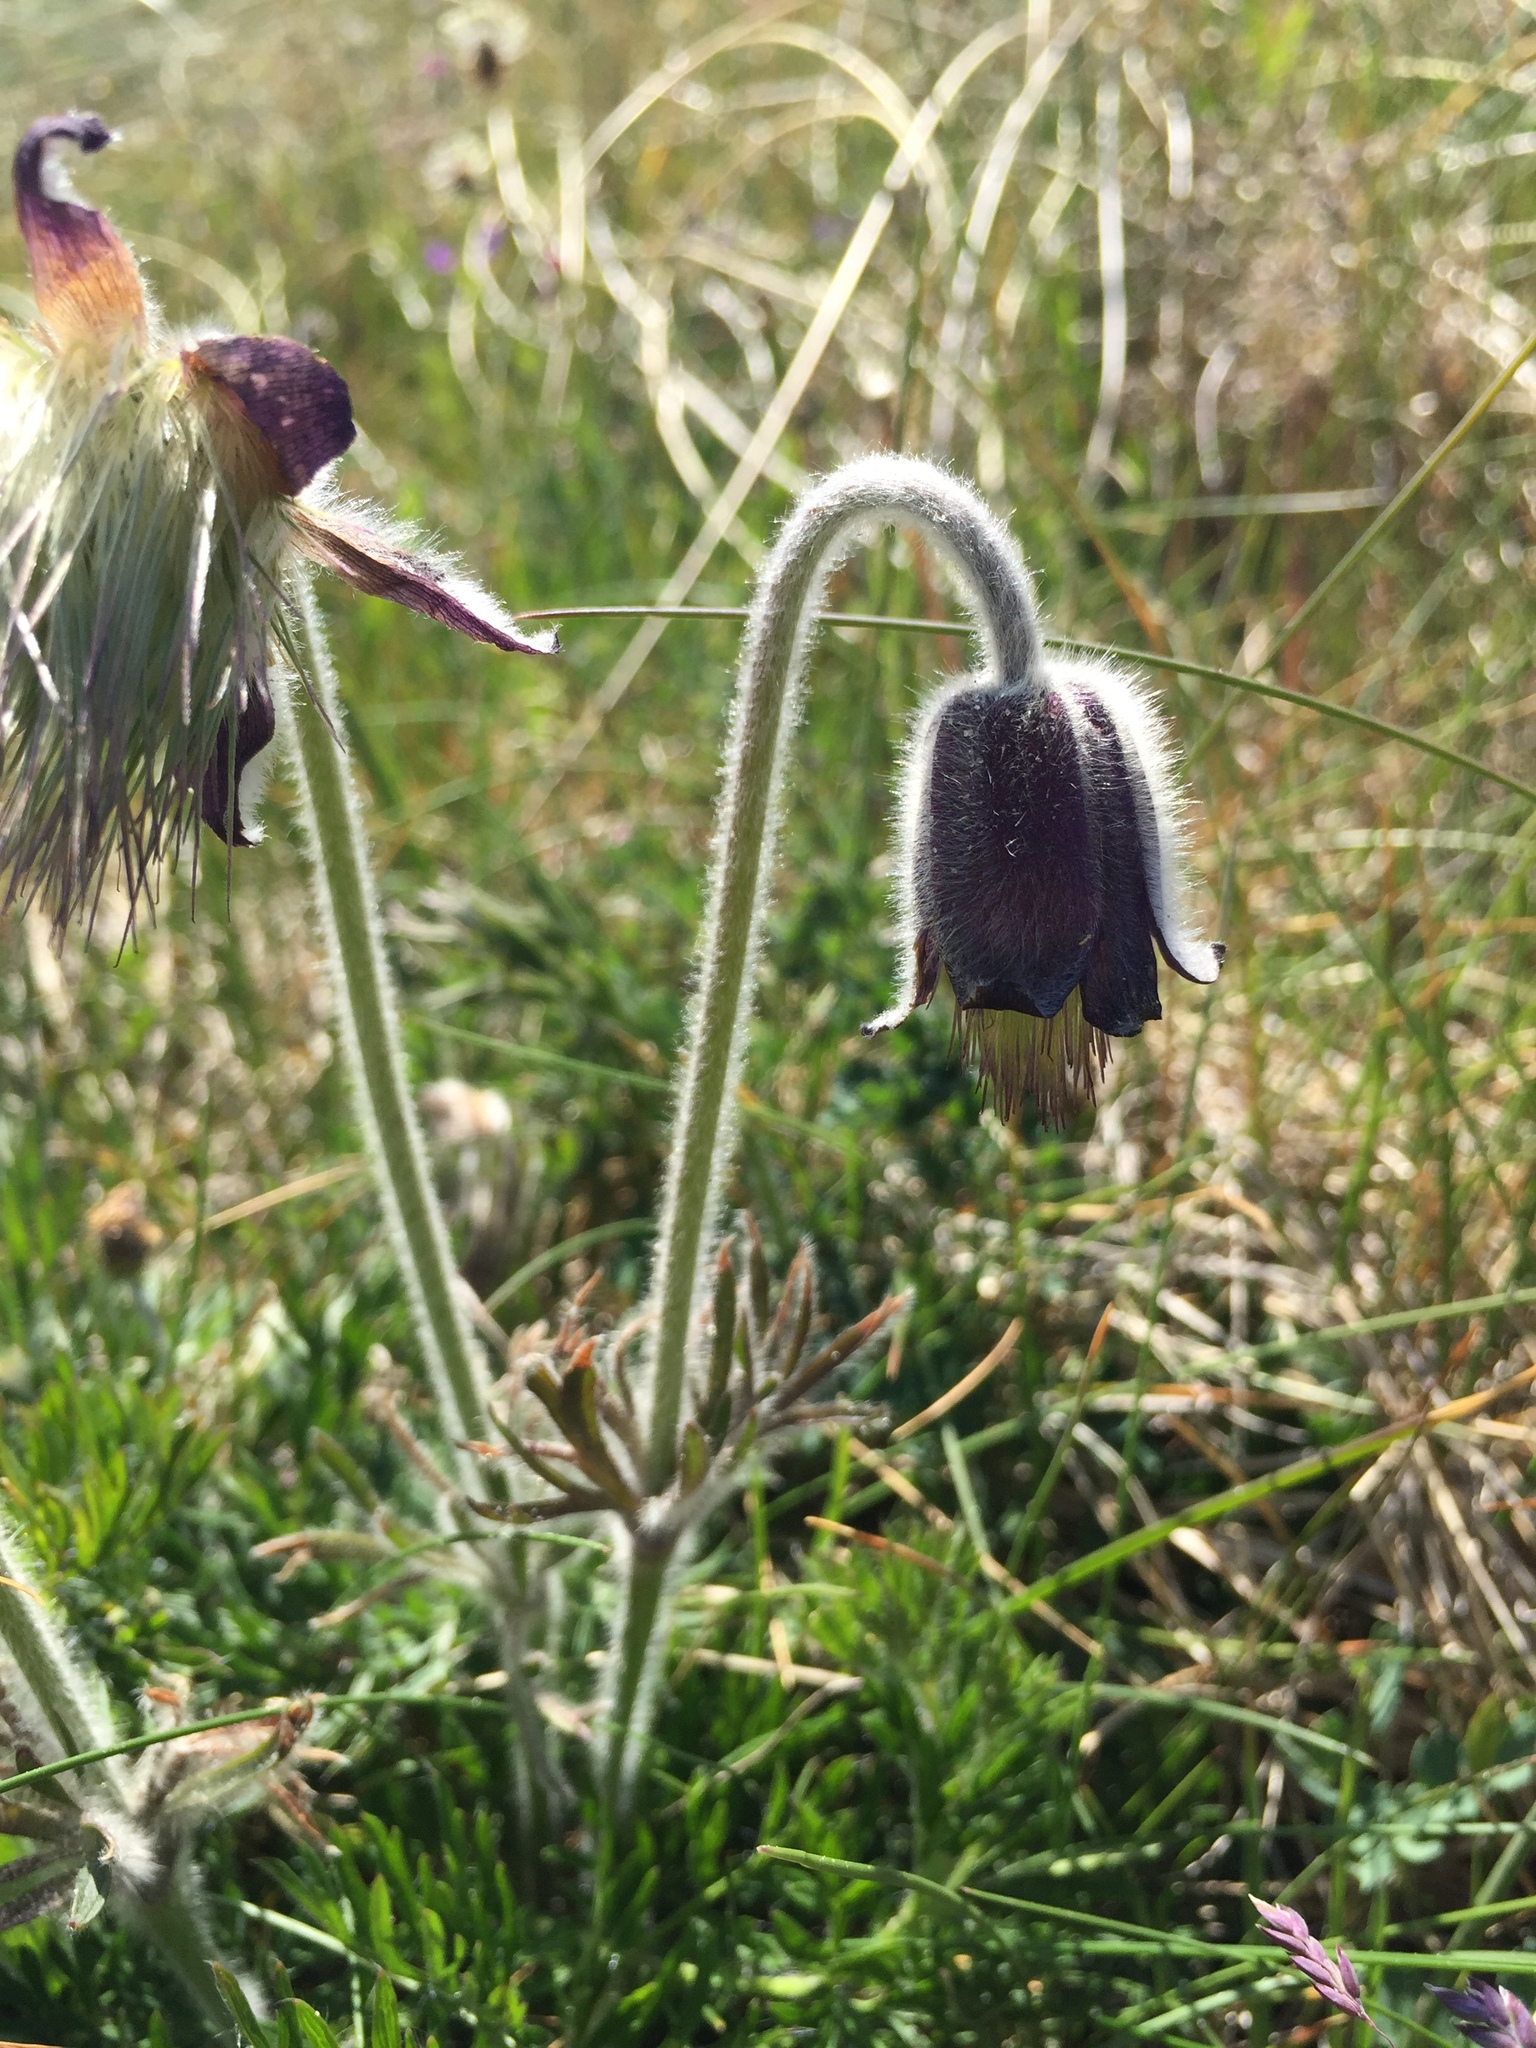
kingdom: Plantae
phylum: Tracheophyta
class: Magnoliopsida
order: Ranunculales
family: Ranunculaceae
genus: Pulsatilla
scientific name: Pulsatilla pratensis
